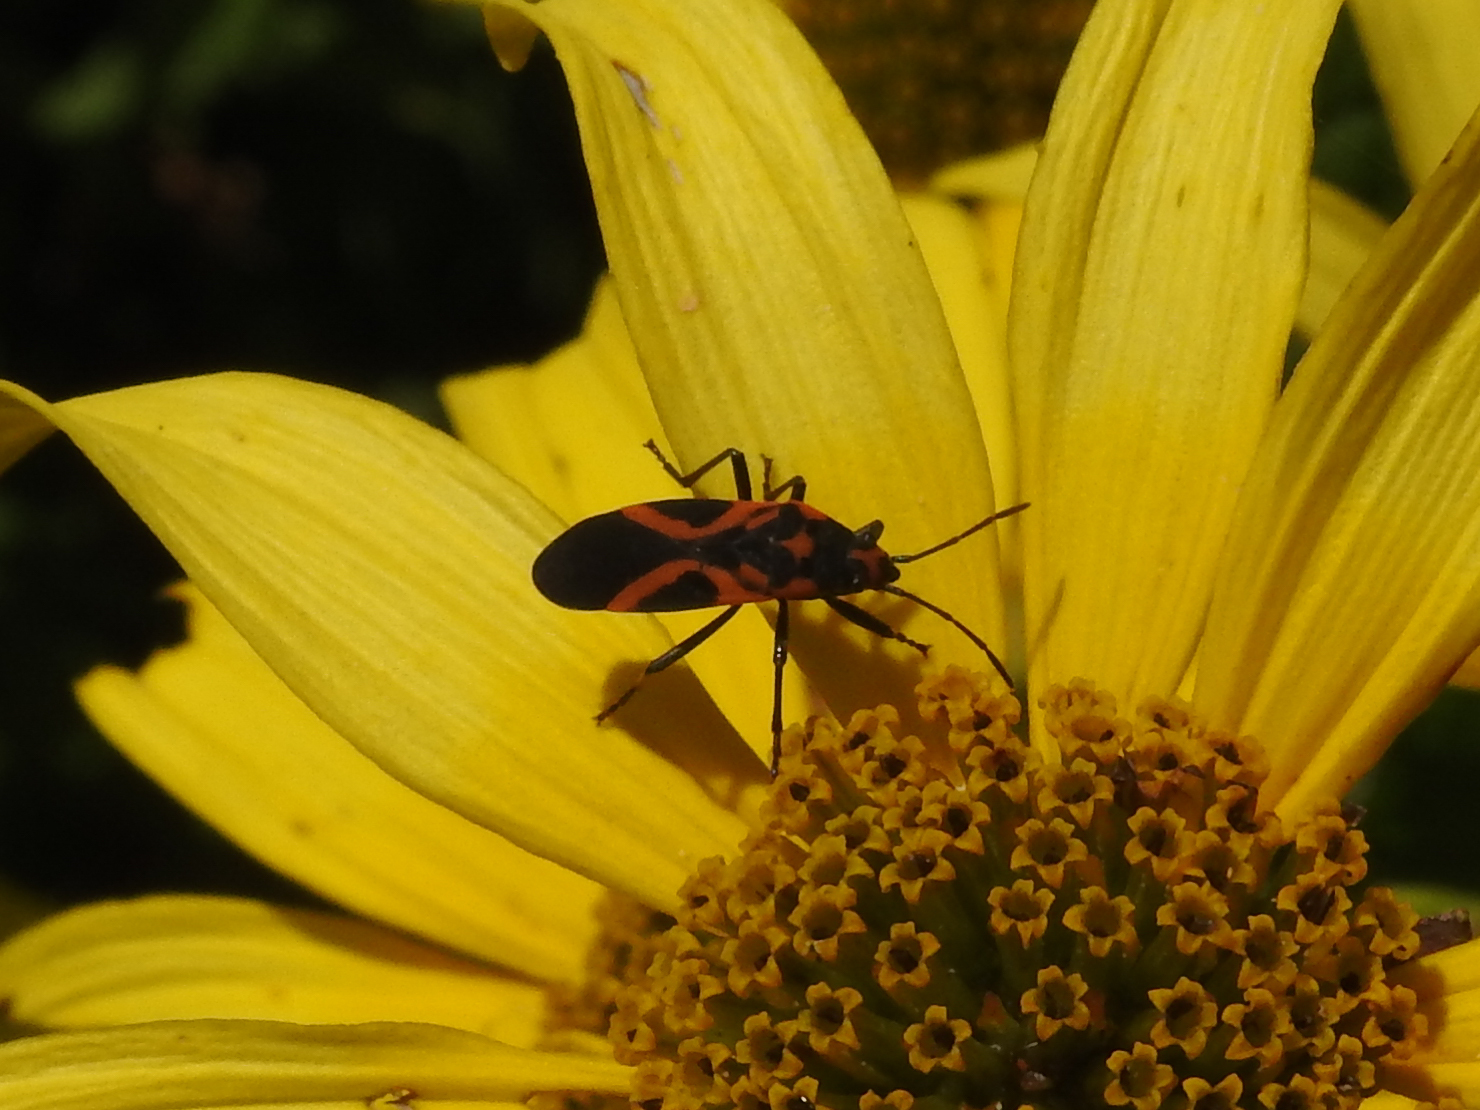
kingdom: Animalia
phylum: Arthropoda
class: Insecta
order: Hemiptera
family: Lygaeidae
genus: Lygaeus
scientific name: Lygaeus turcicus
